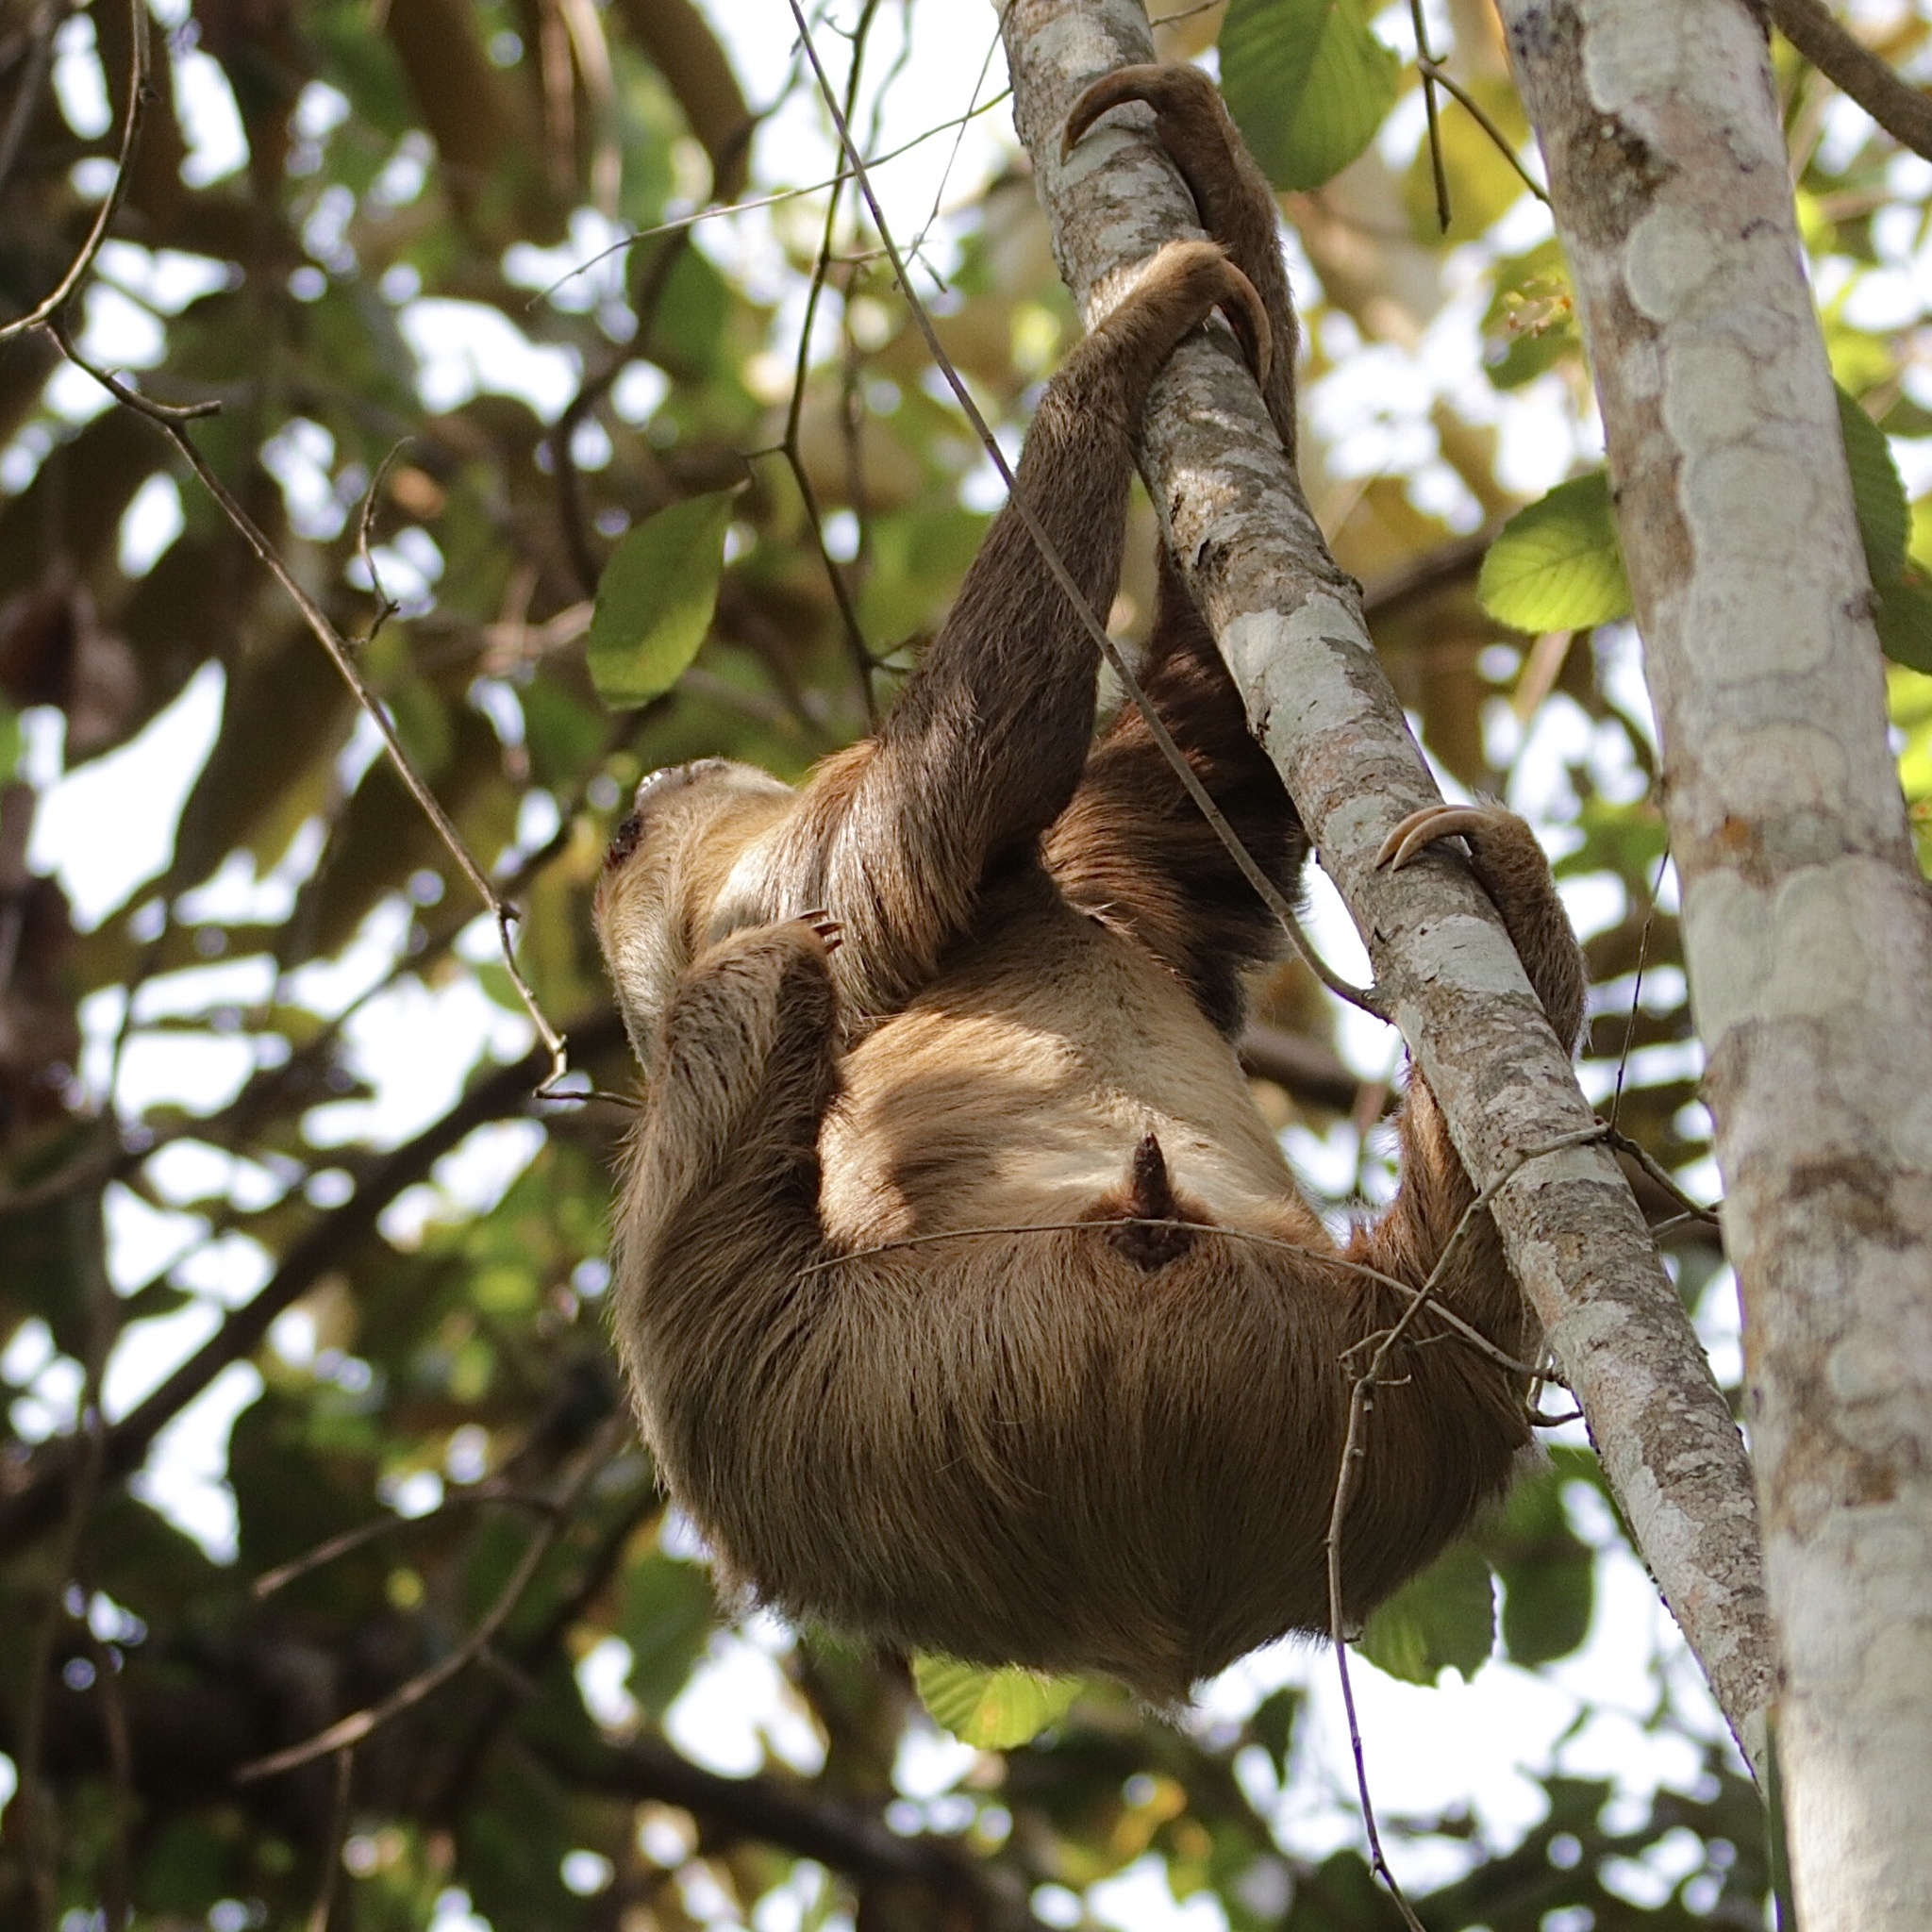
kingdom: Animalia
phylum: Chordata
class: Mammalia
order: Pilosa
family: Megalonychidae
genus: Choloepus
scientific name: Choloepus hoffmanni
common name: Hoffmann's two-toed sloth
